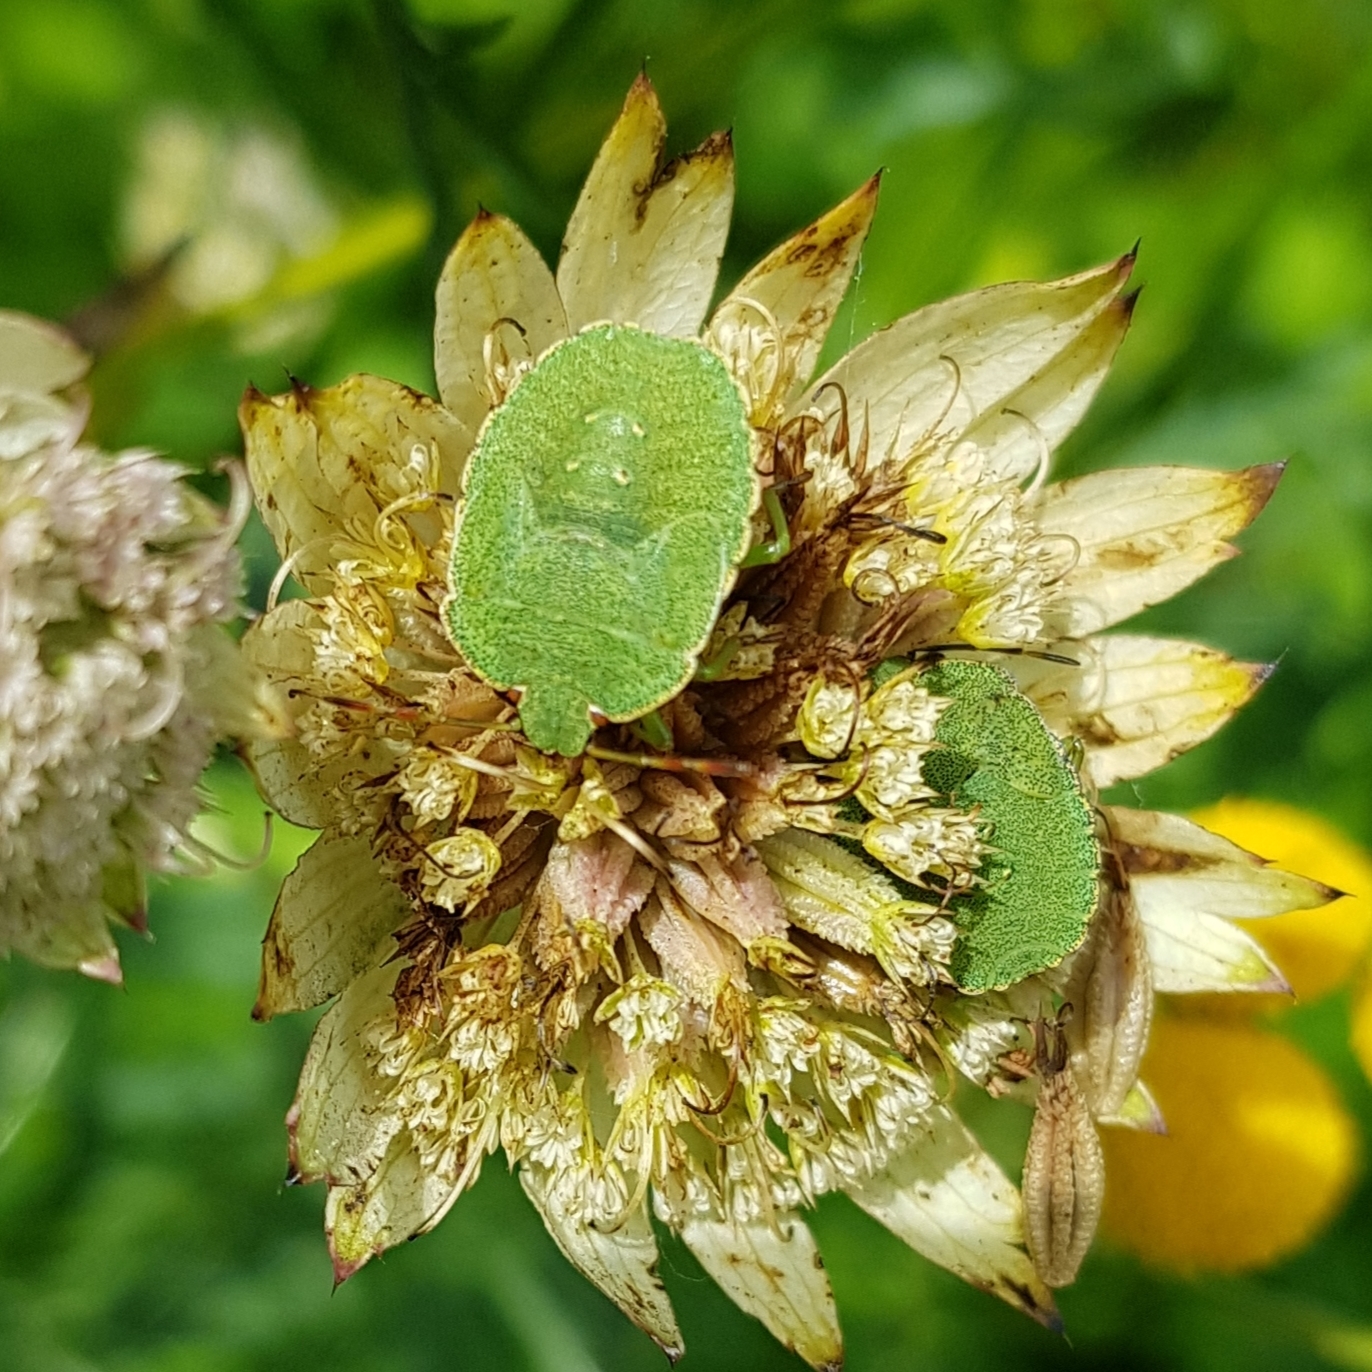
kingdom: Animalia
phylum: Arthropoda
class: Insecta
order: Hemiptera
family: Pentatomidae
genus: Palomena
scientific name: Palomena prasina
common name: Green shieldbug
